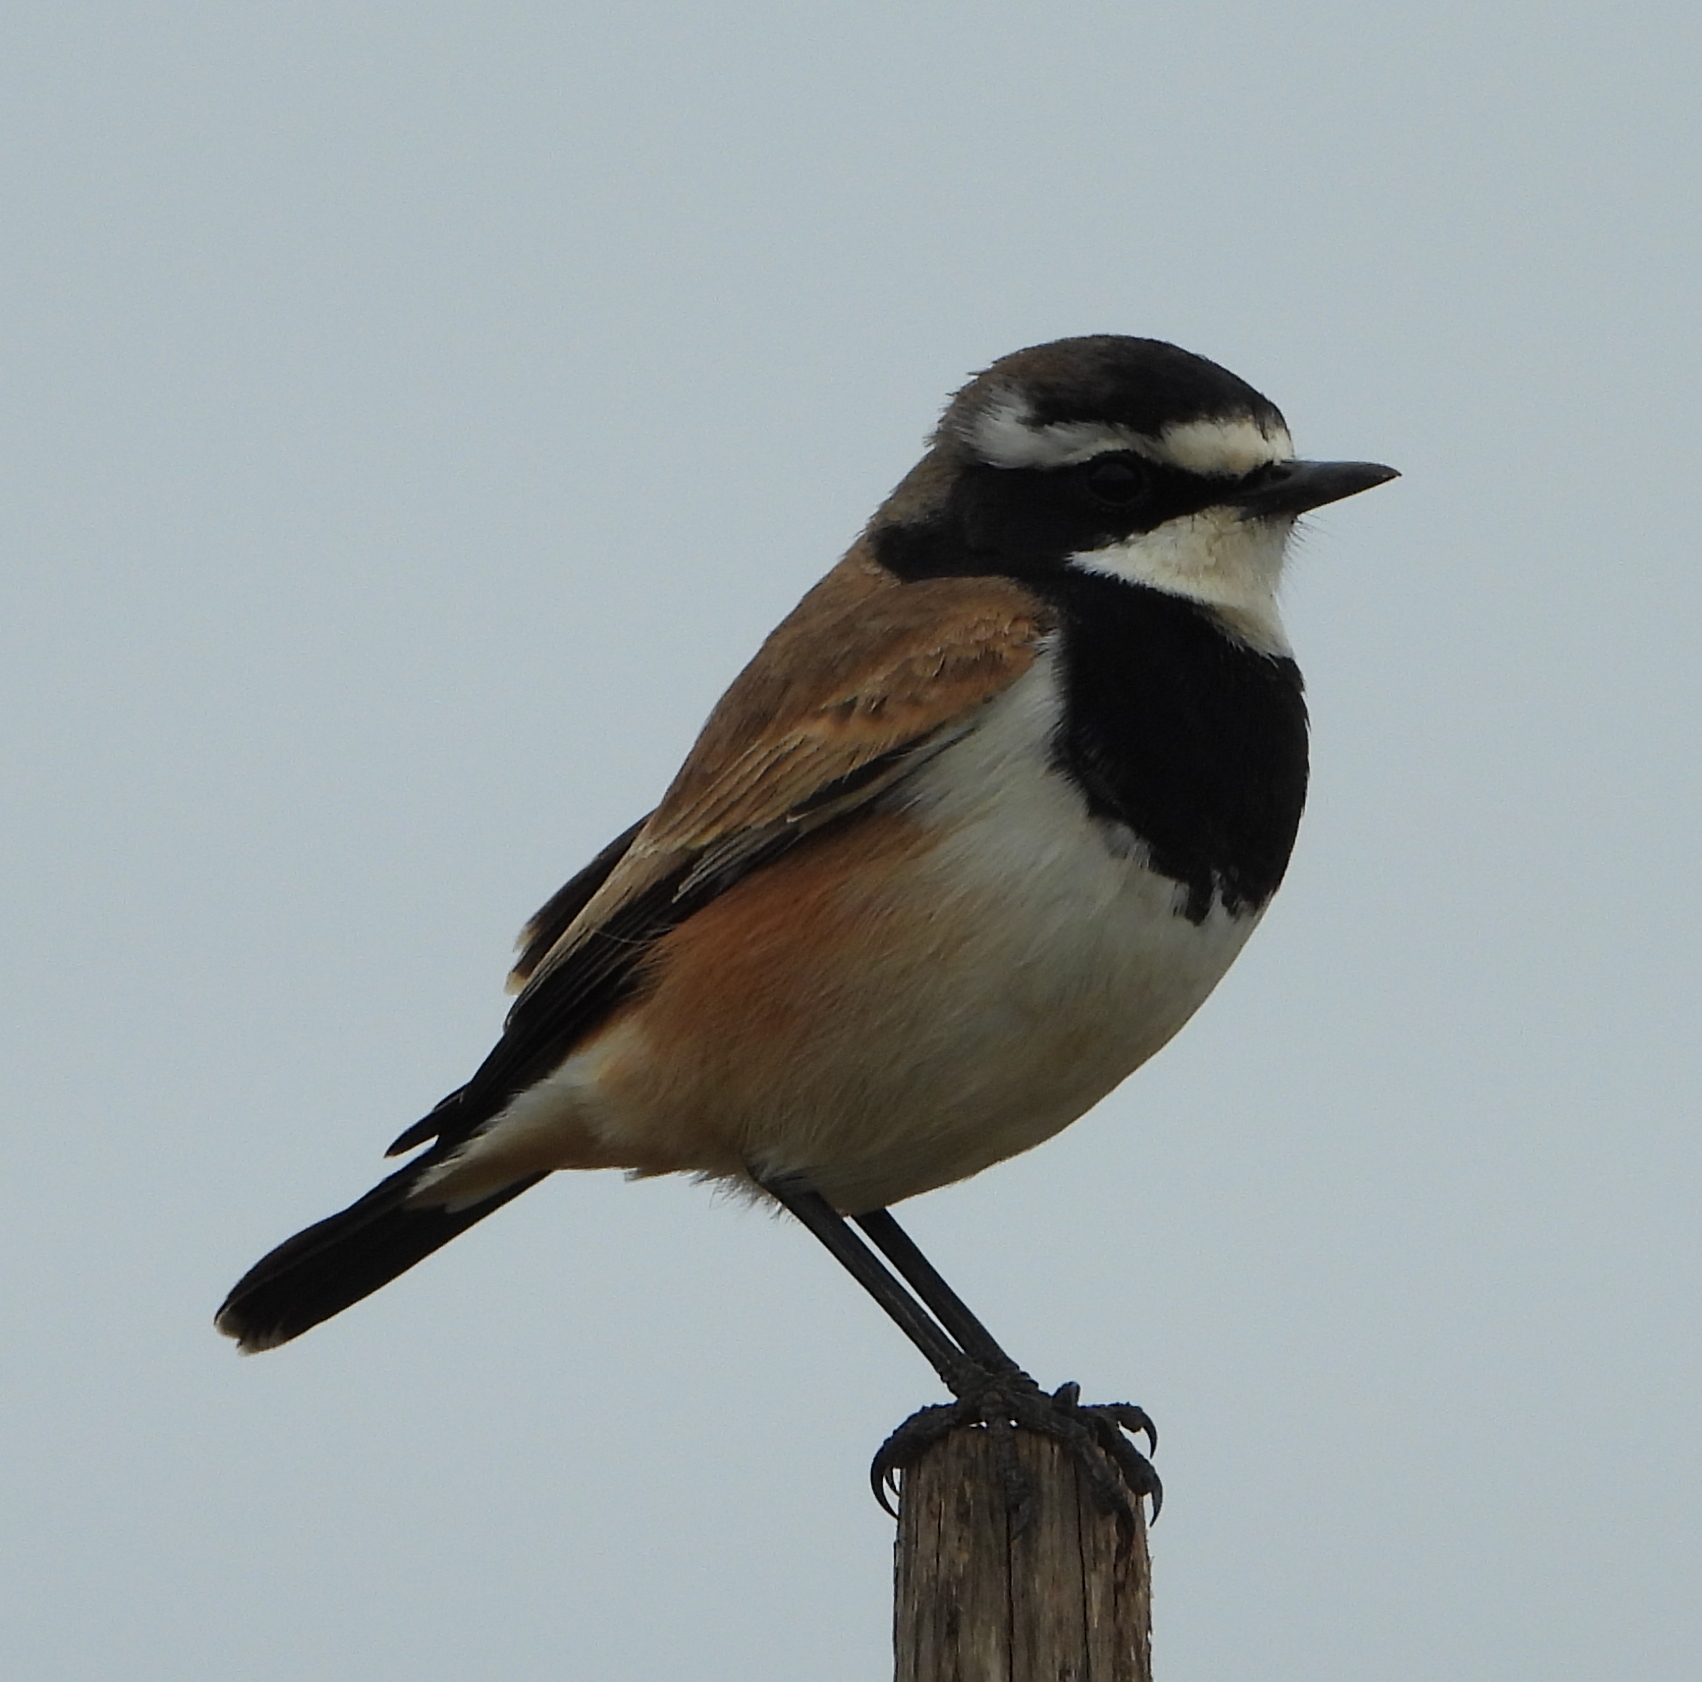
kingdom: Animalia
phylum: Chordata
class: Aves
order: Passeriformes
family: Muscicapidae
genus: Oenanthe
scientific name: Oenanthe pileata
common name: Capped wheatear
